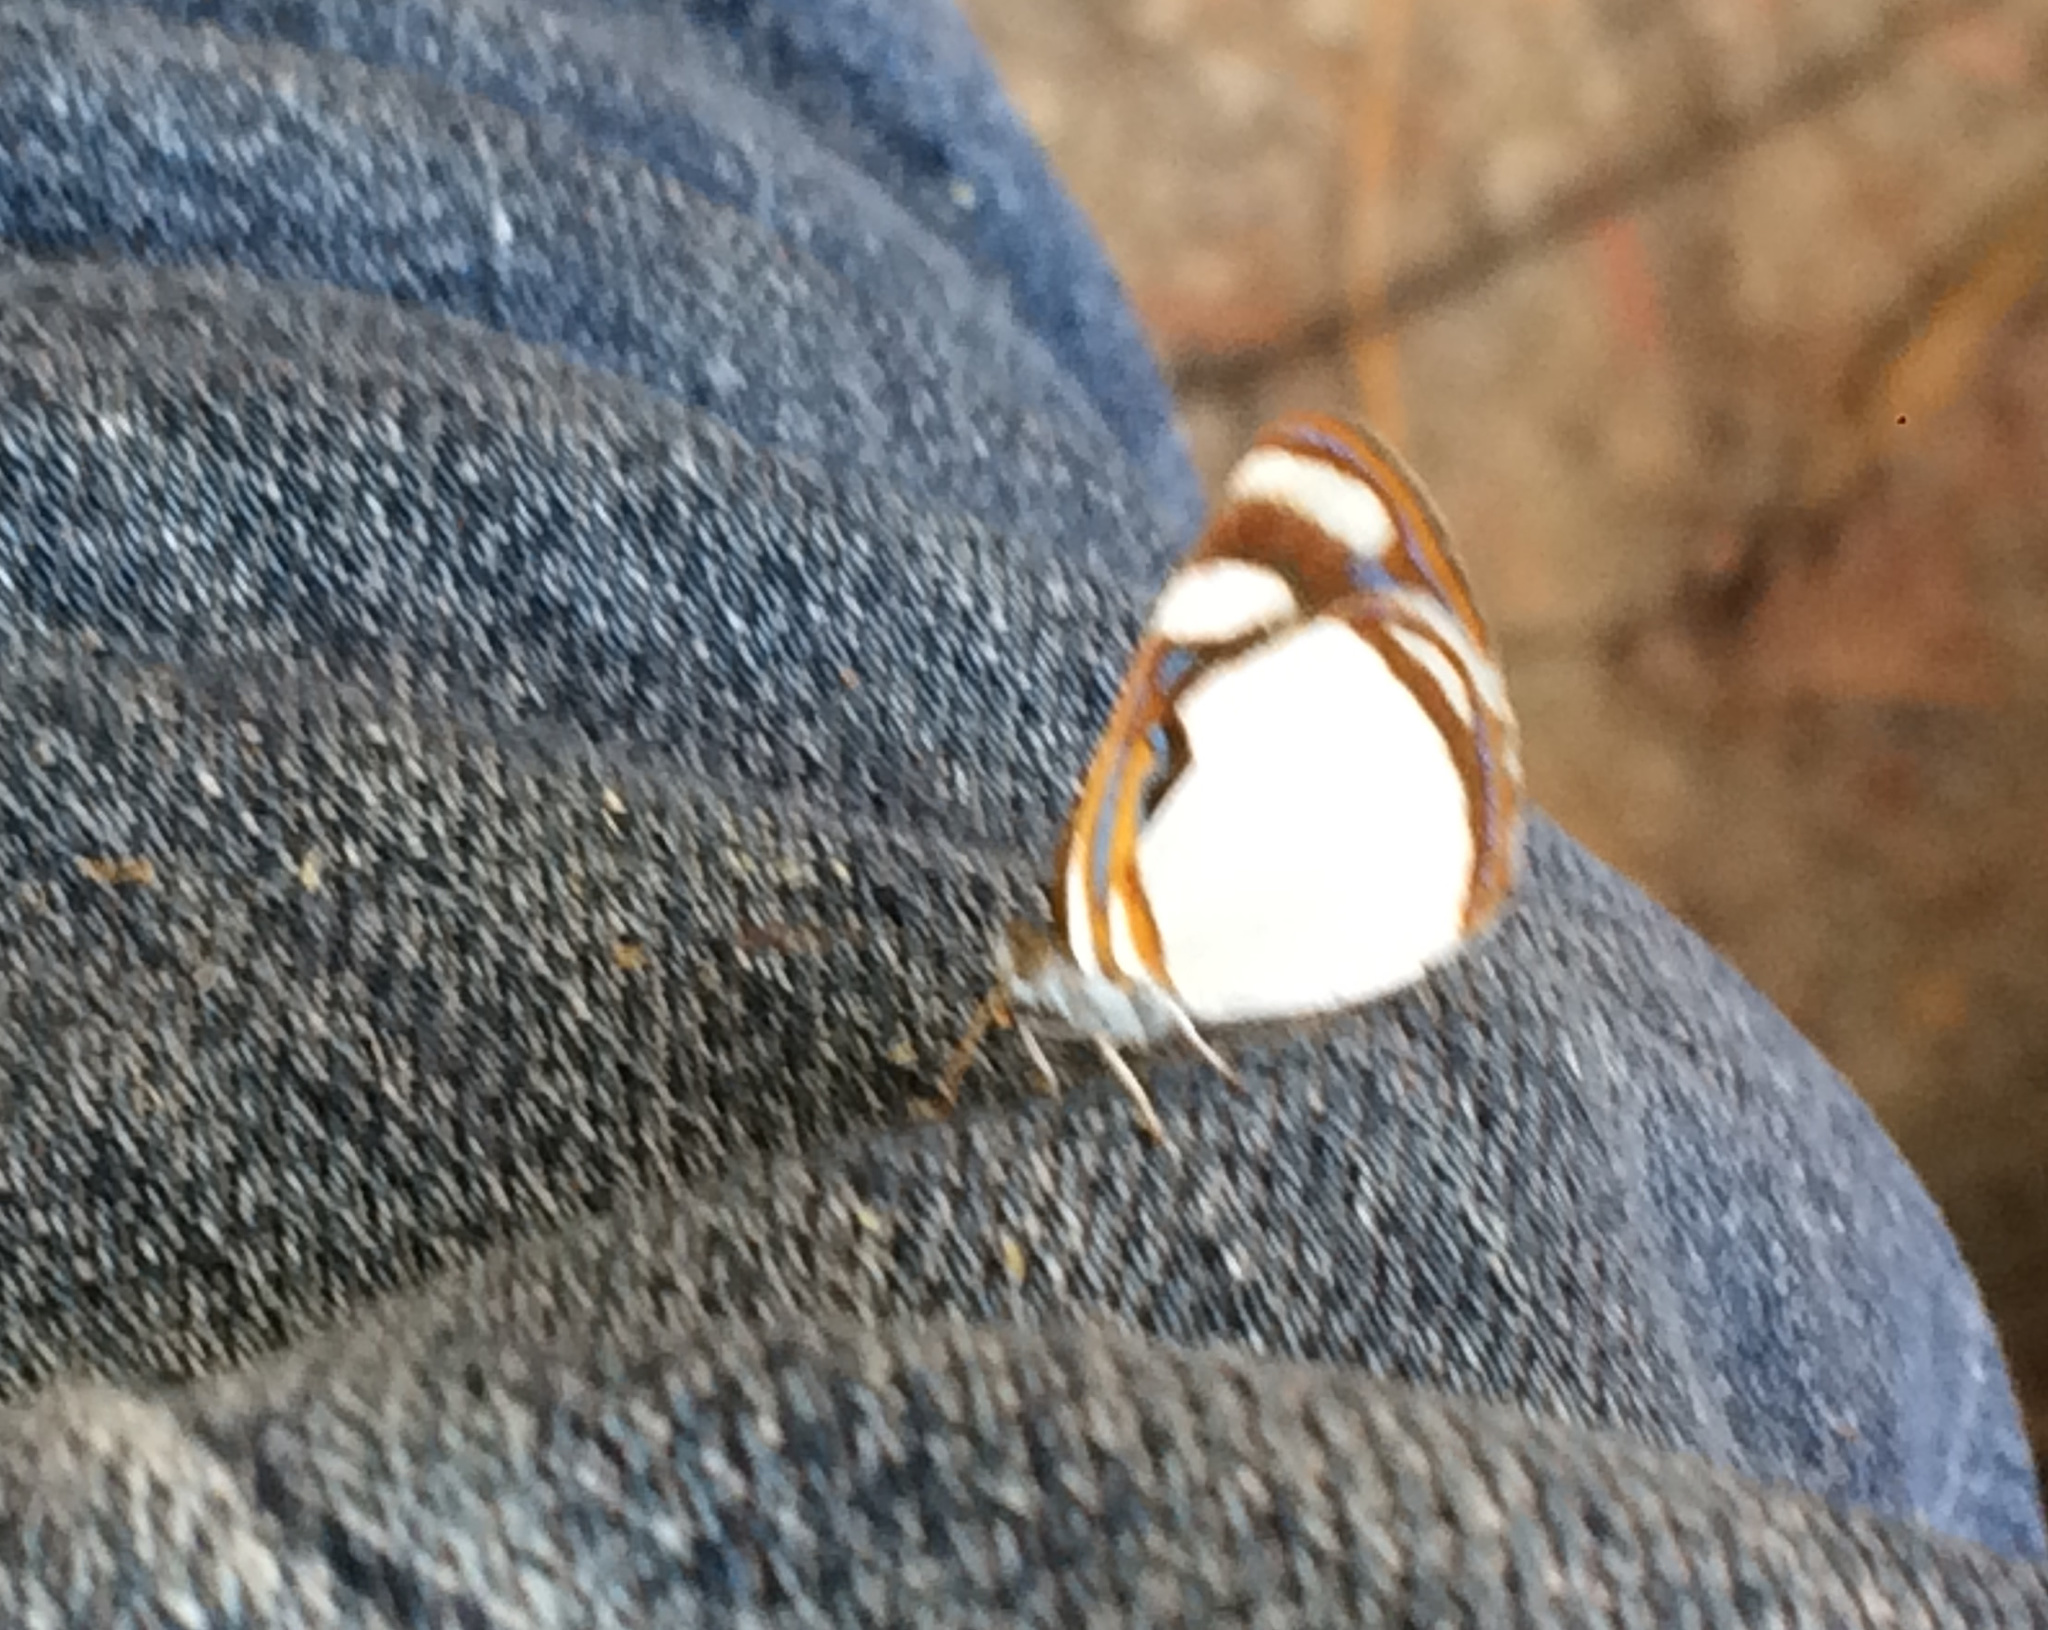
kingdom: Animalia
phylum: Arthropoda
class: Insecta
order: Lepidoptera
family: Nymphalidae
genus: Dynamine
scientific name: Dynamine agacles
